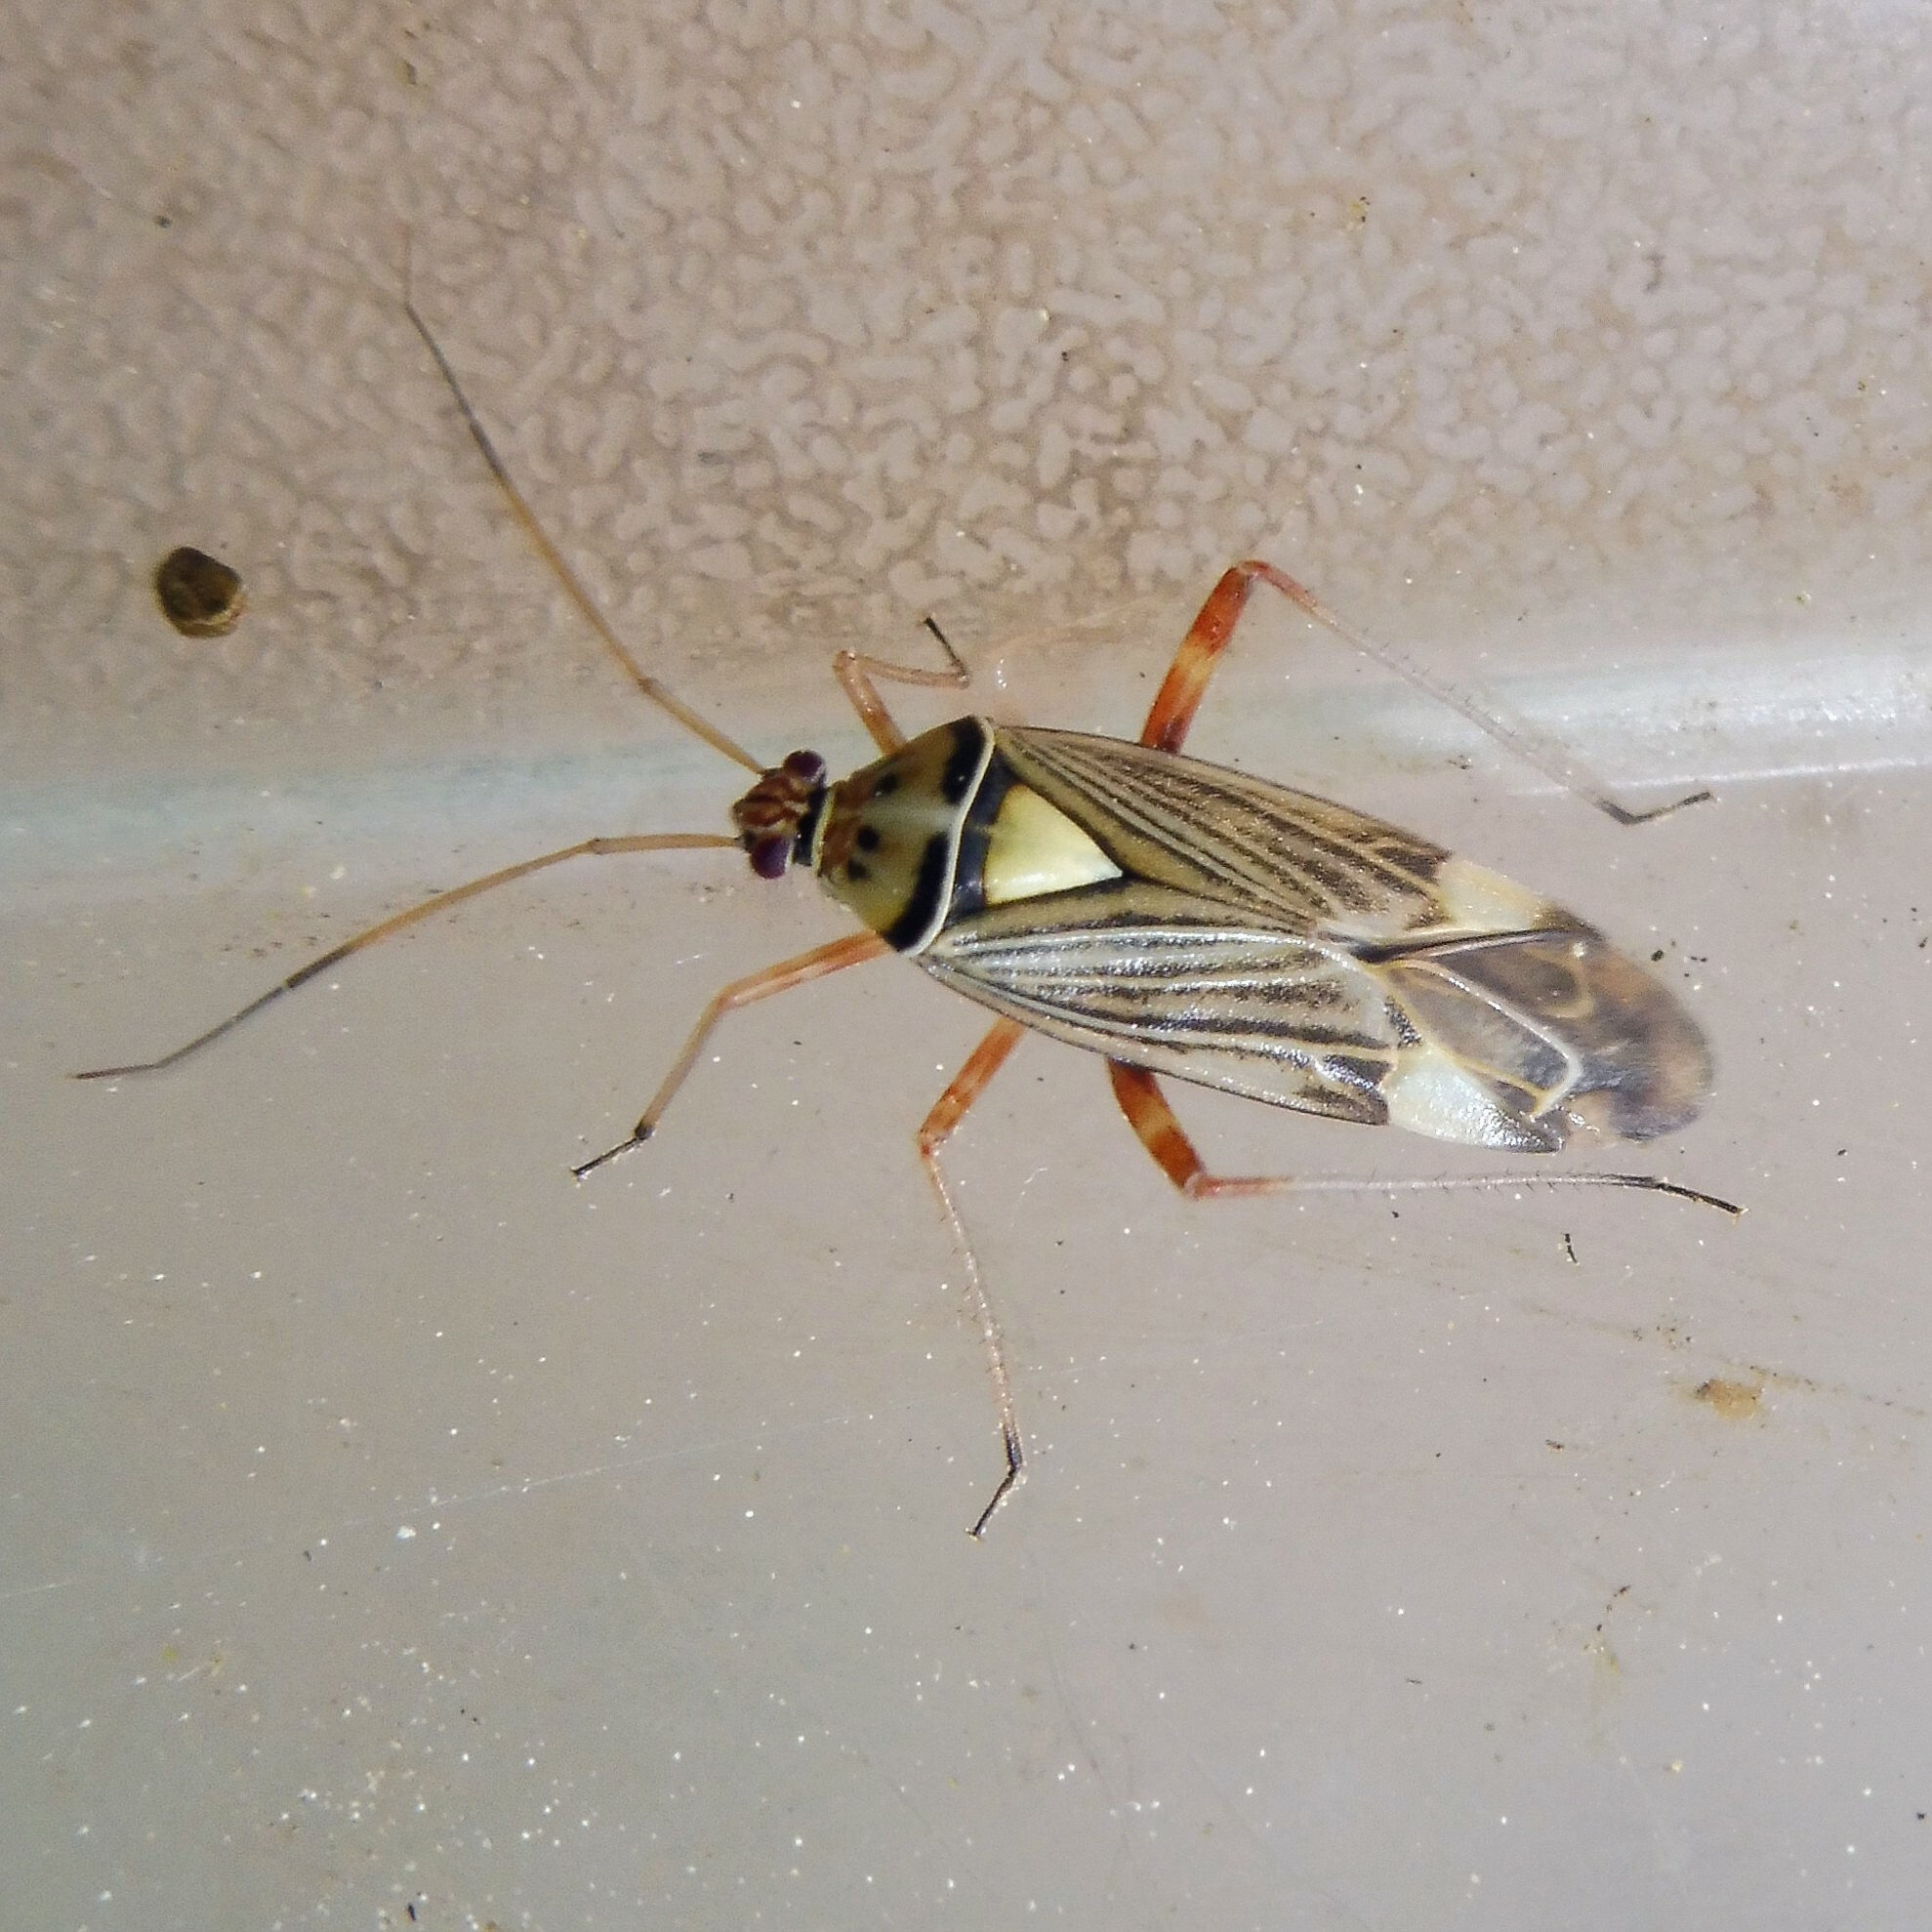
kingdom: Animalia
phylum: Arthropoda
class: Insecta
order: Hemiptera
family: Miridae
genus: Rhabdomiris
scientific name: Rhabdomiris striatellus
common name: Plant bug
